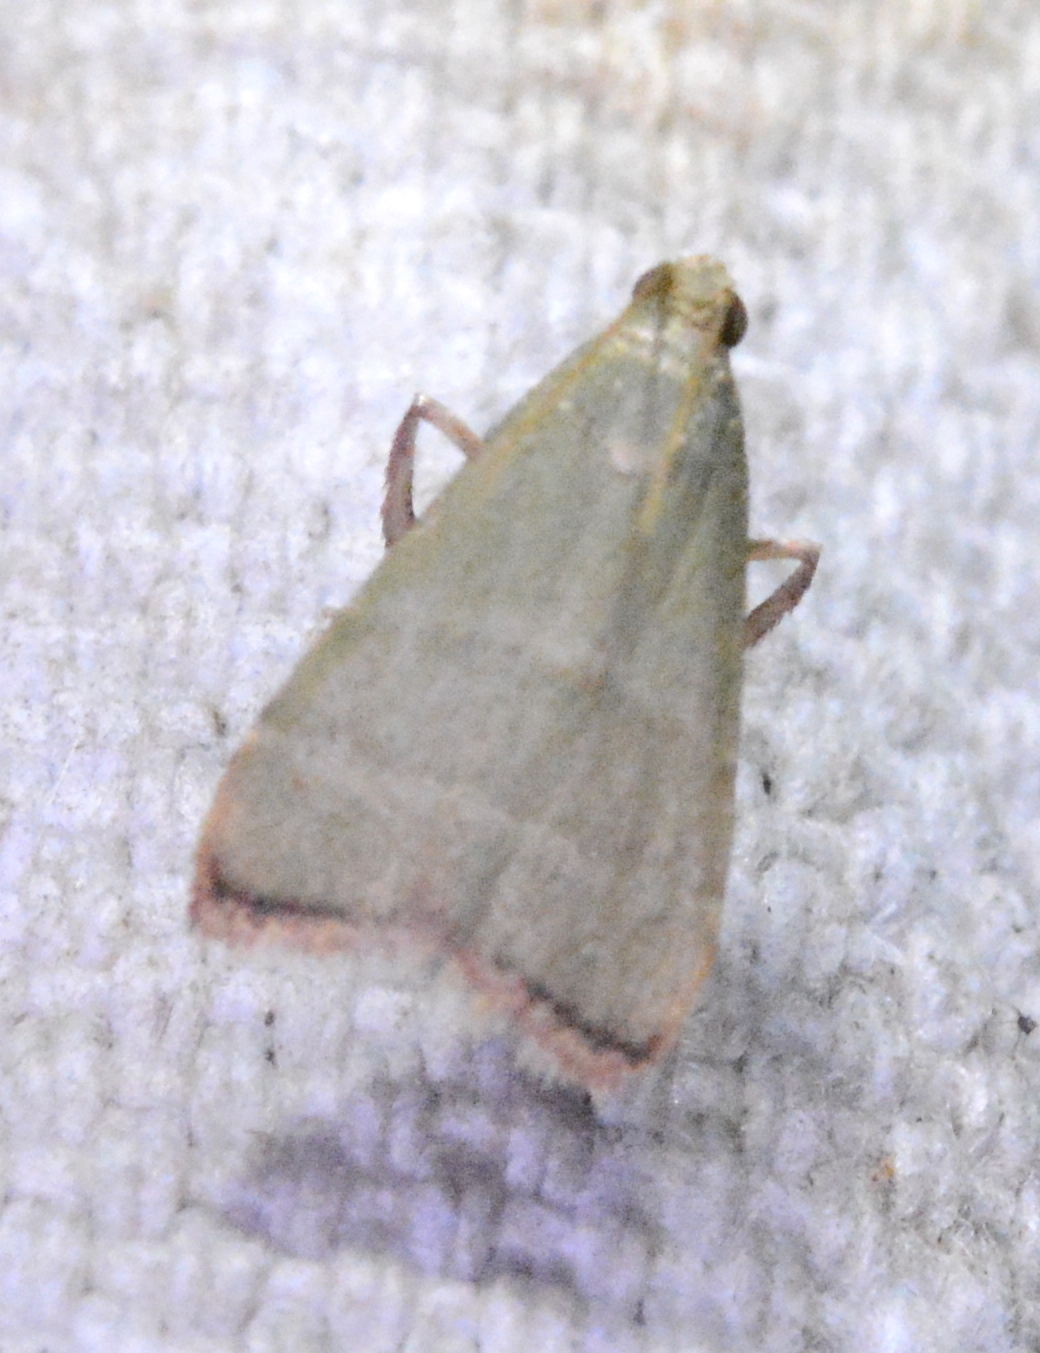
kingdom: Animalia
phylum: Arthropoda
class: Insecta
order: Lepidoptera
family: Pyralidae
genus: Arta
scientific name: Arta olivalis
